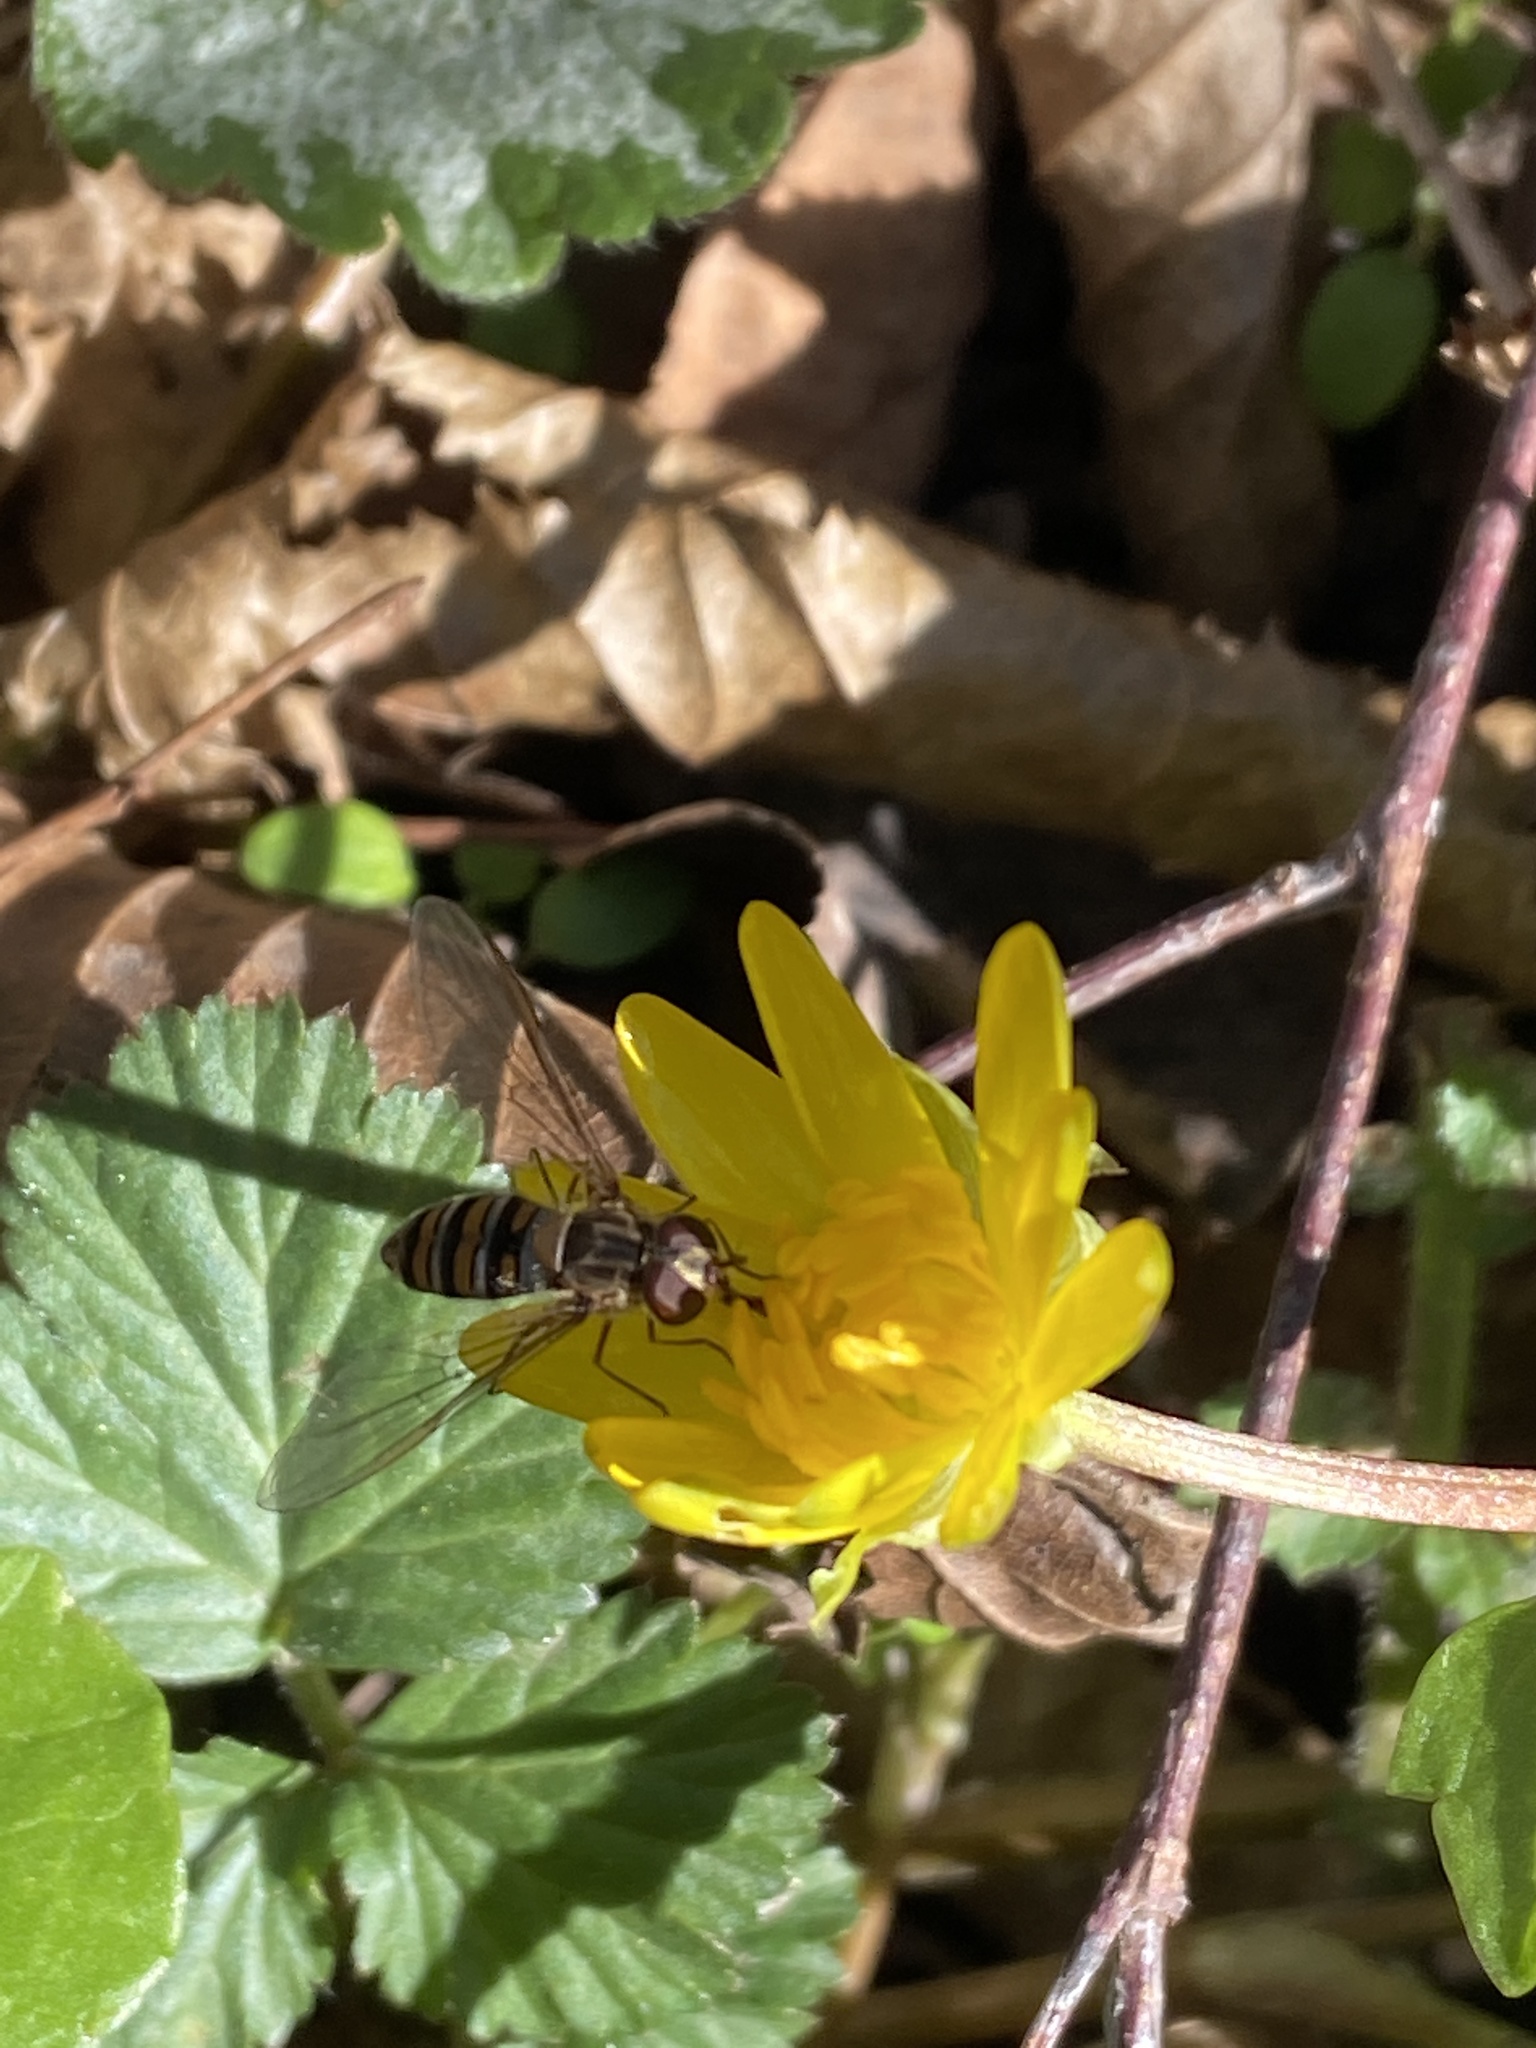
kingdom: Animalia
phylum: Arthropoda
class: Insecta
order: Diptera
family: Syrphidae
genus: Episyrphus
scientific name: Episyrphus balteatus
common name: Marmalade hoverfly
